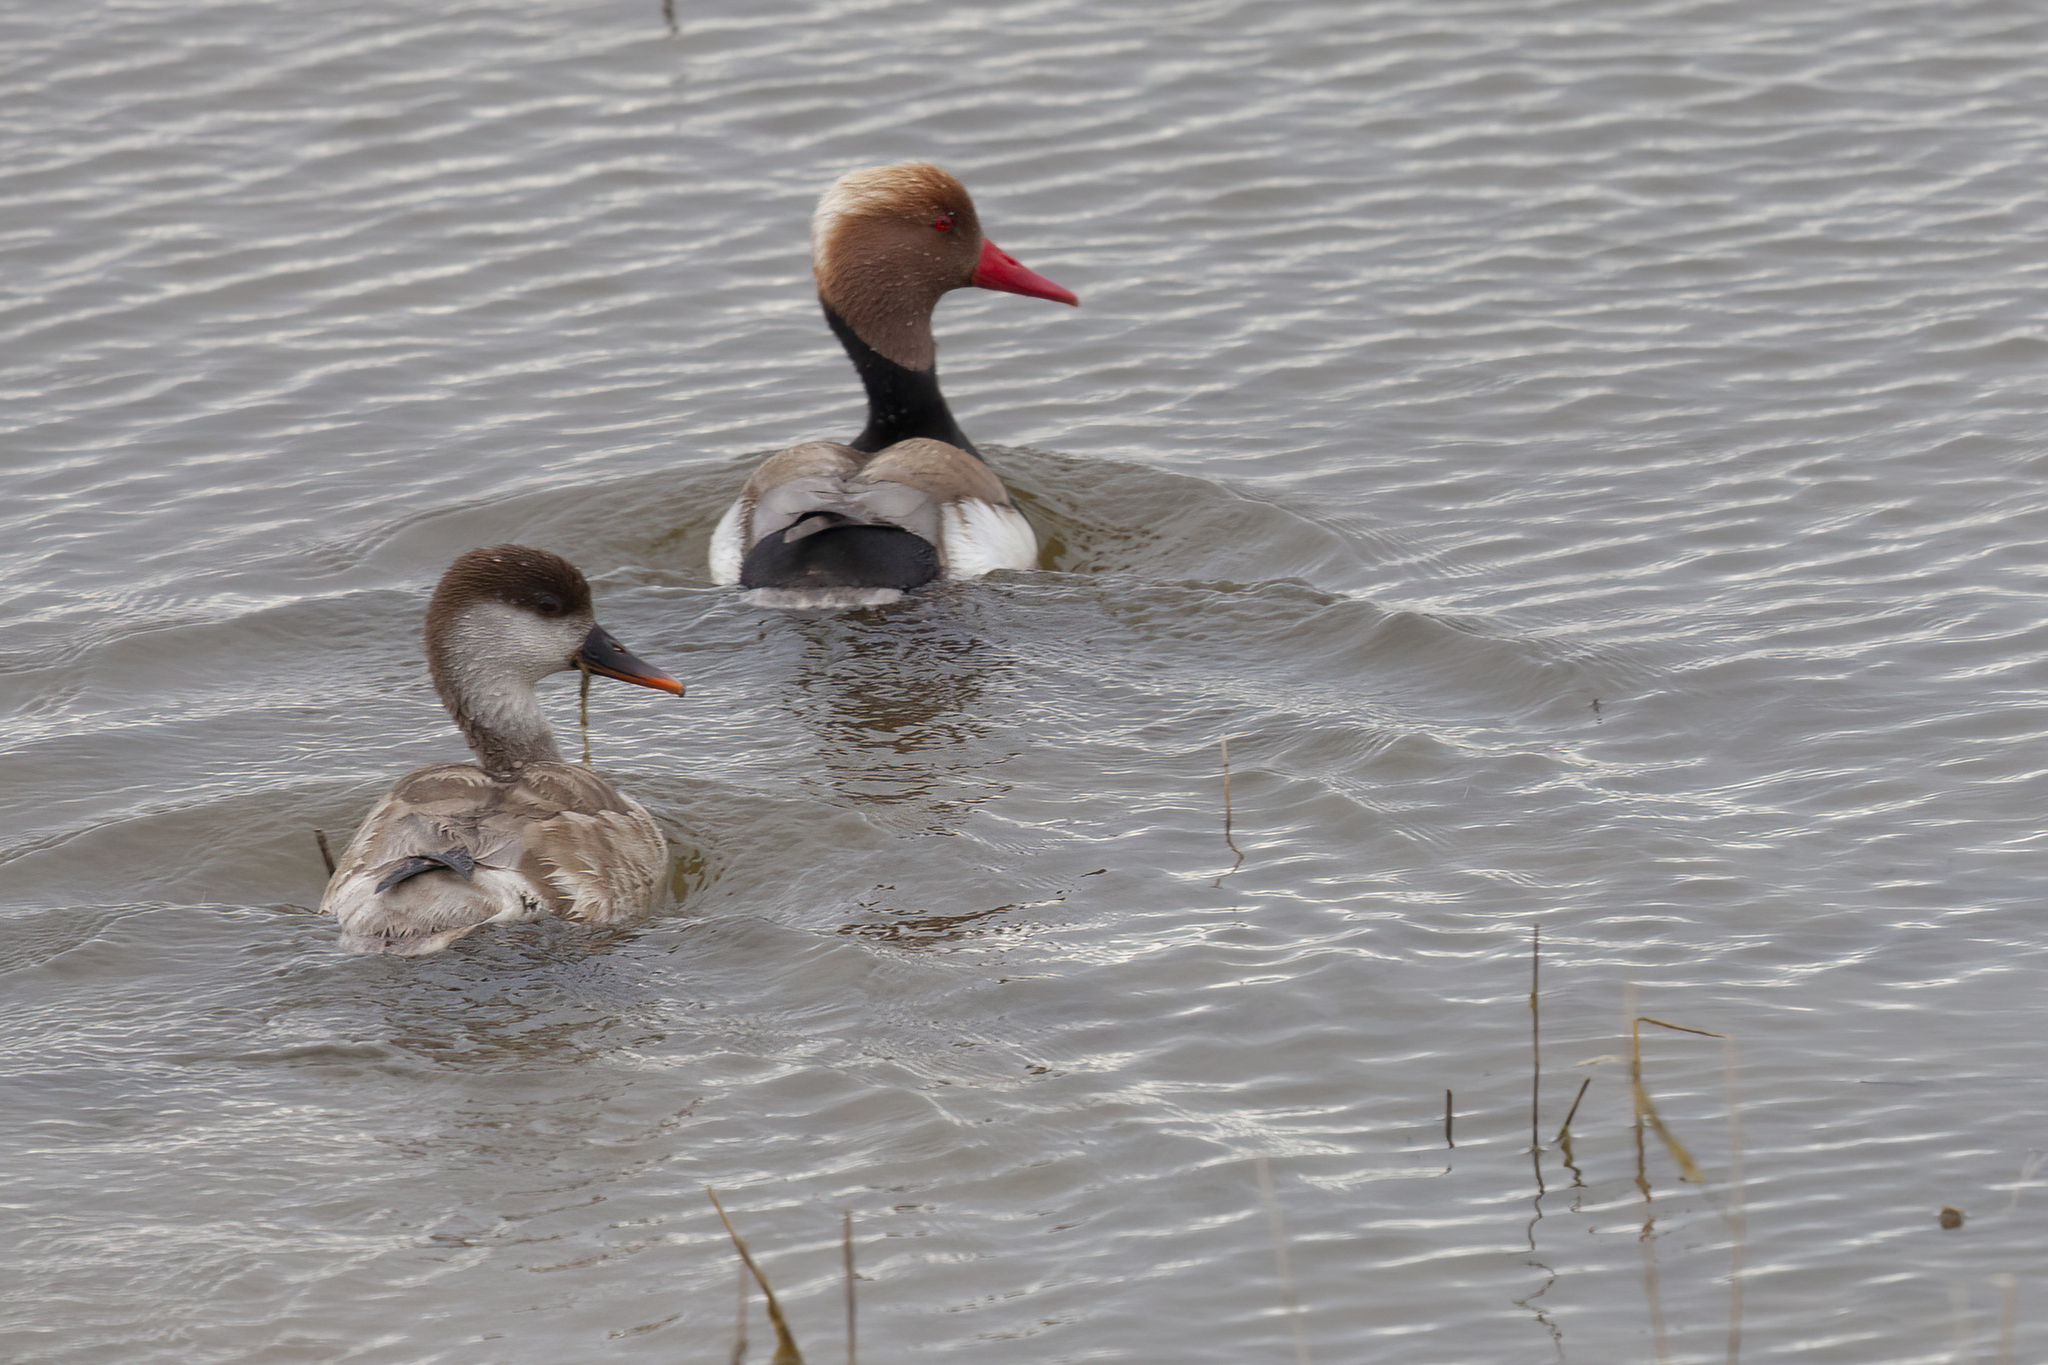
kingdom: Animalia
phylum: Chordata
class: Aves
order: Anseriformes
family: Anatidae
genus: Netta
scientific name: Netta rufina
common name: Red-crested pochard
